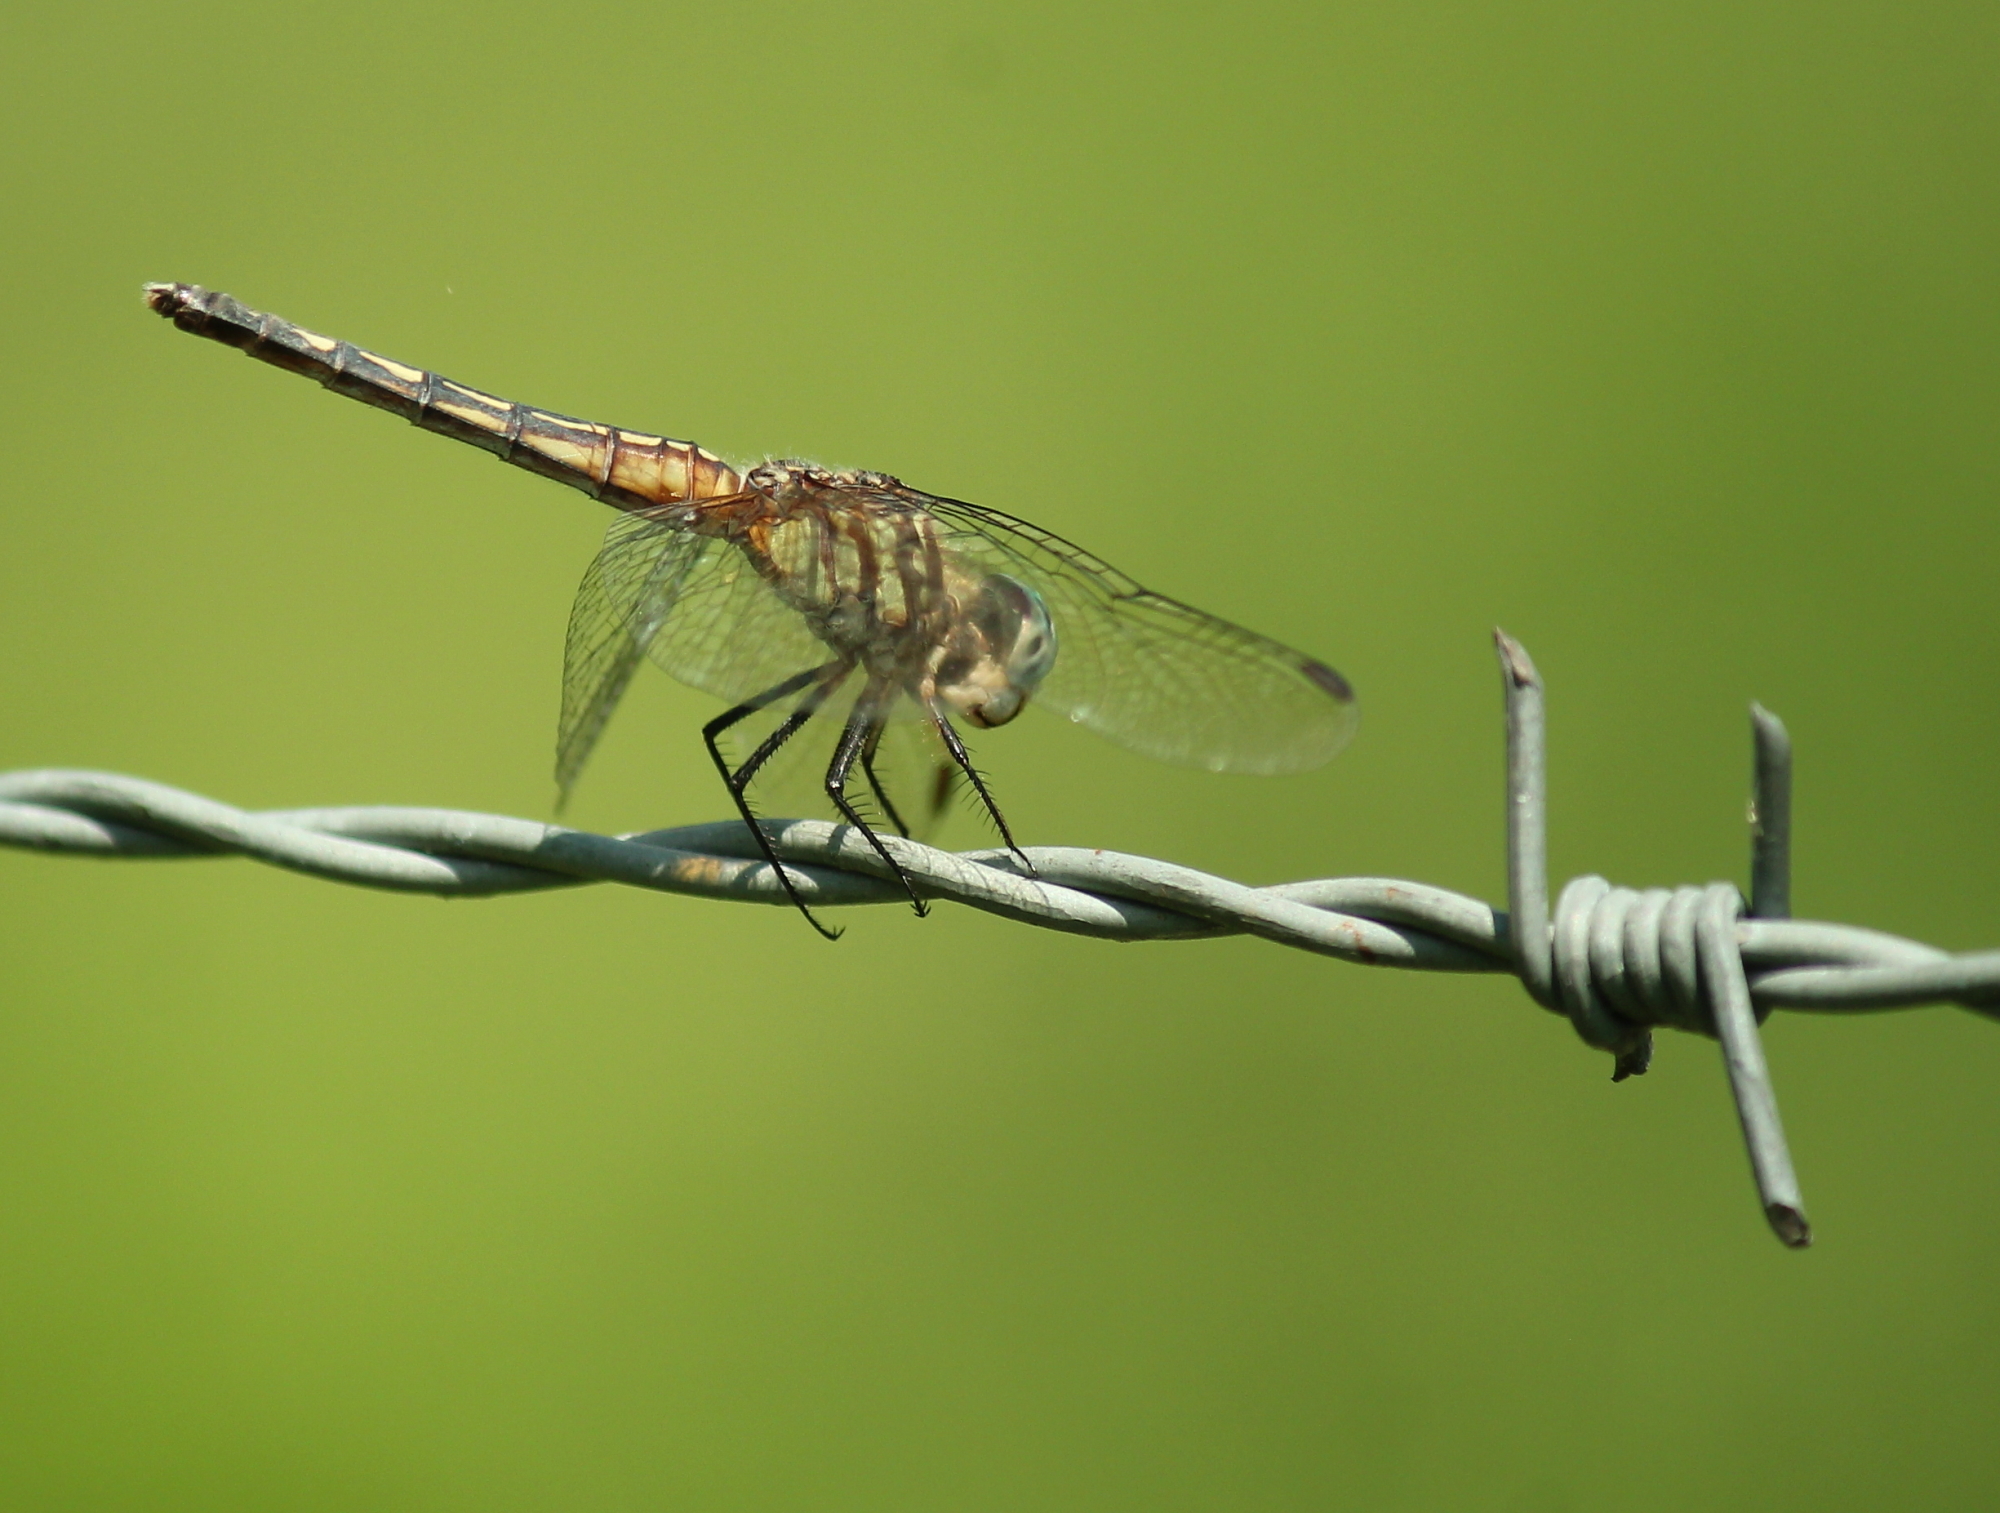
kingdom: Animalia
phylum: Arthropoda
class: Insecta
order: Odonata
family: Libellulidae
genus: Pachydiplax
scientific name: Pachydiplax longipennis
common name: Blue dasher
